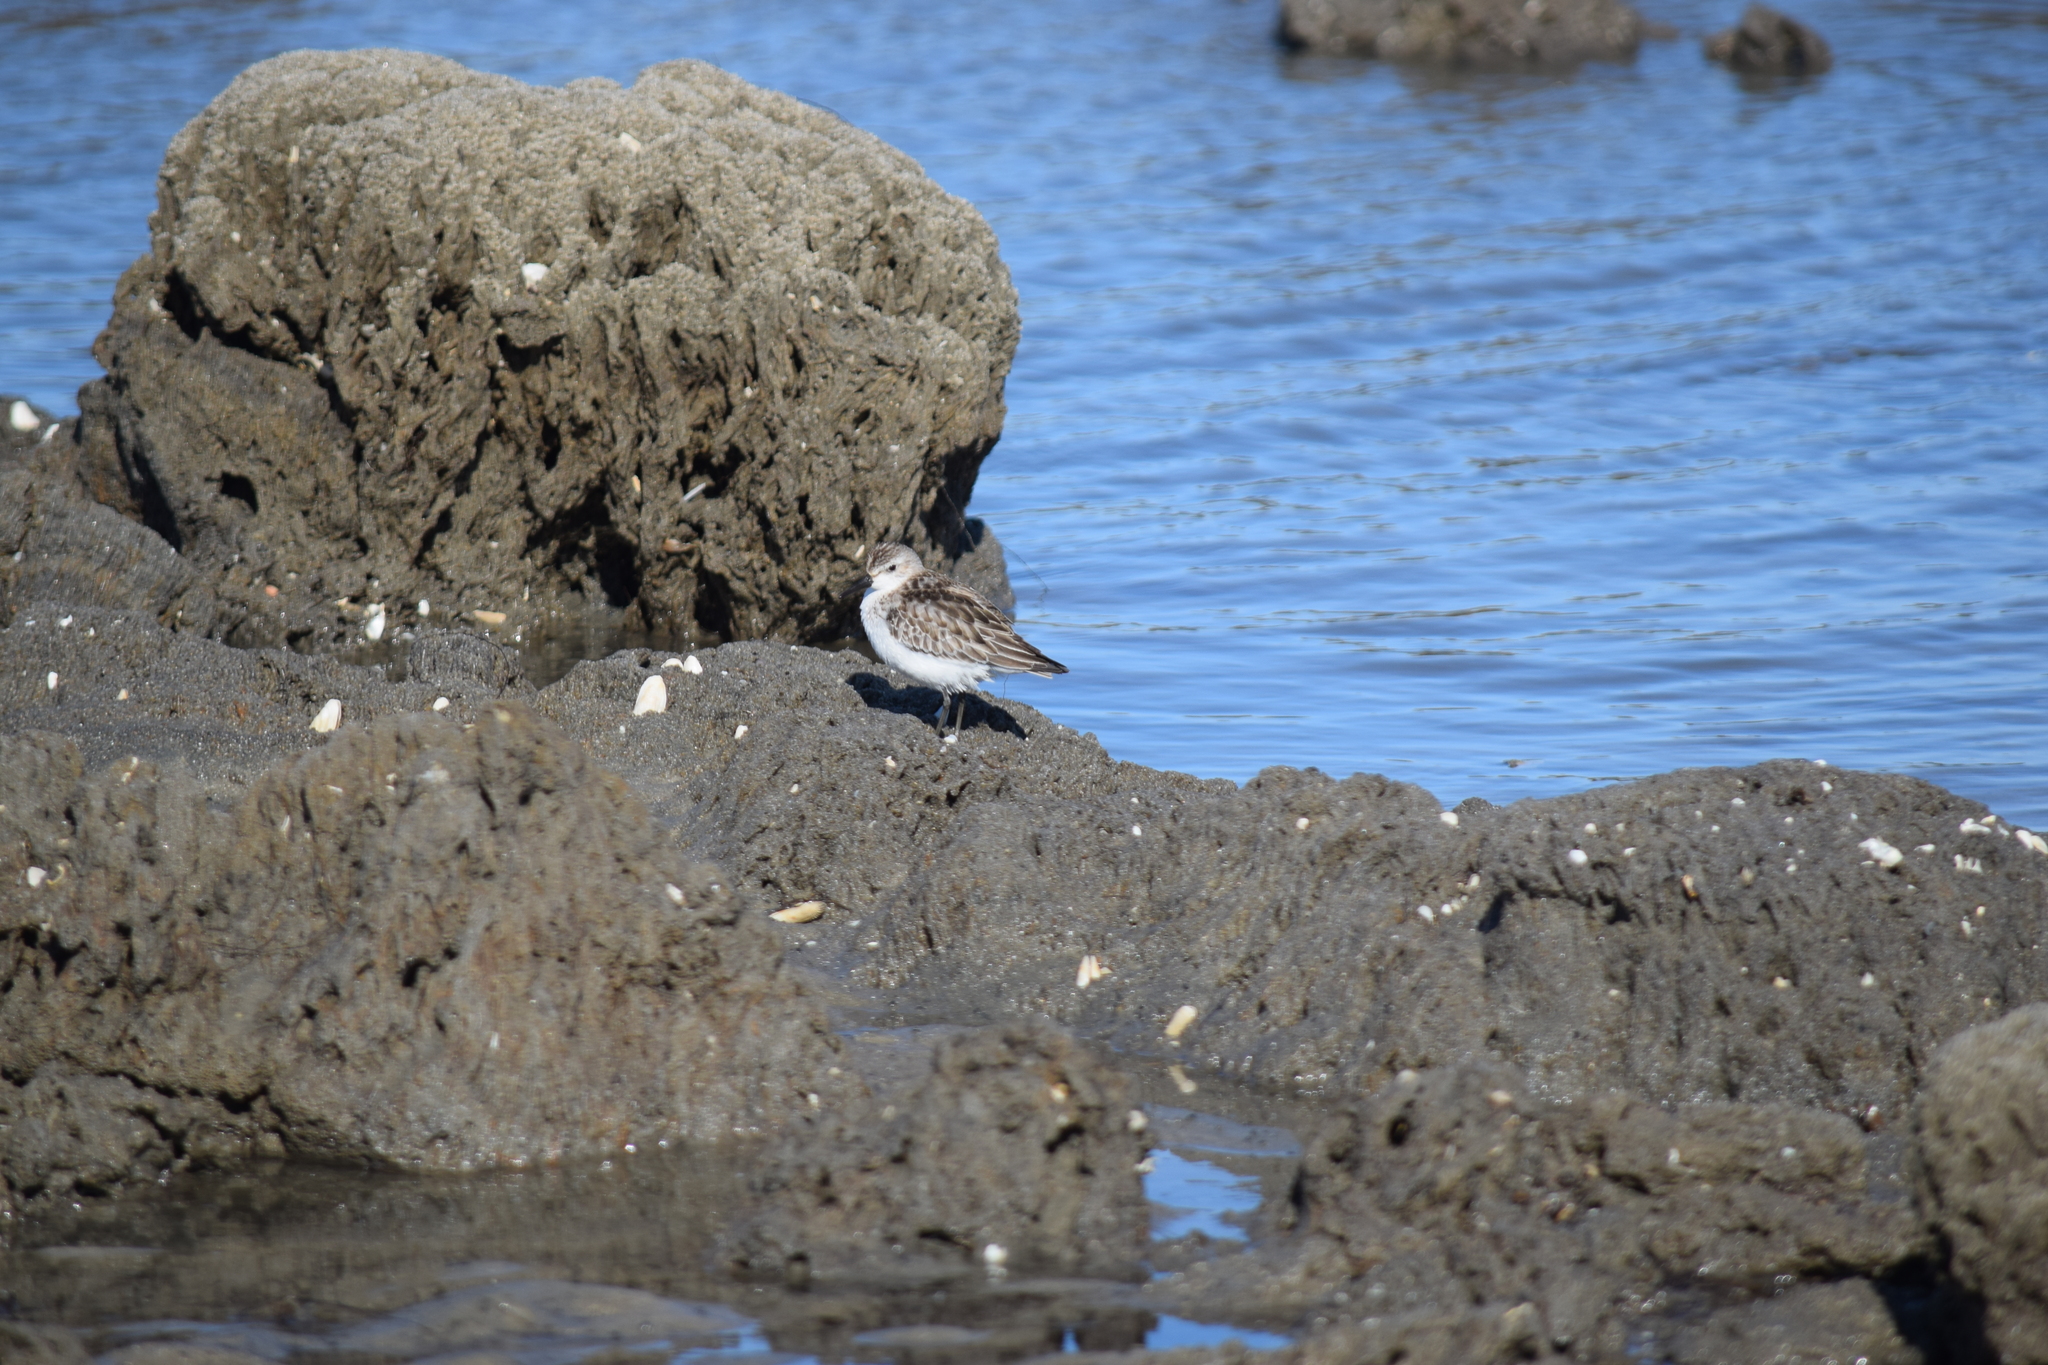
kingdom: Animalia
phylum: Chordata
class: Aves
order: Charadriiformes
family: Scolopacidae
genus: Calidris
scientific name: Calidris pusilla
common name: Semipalmated sandpiper
